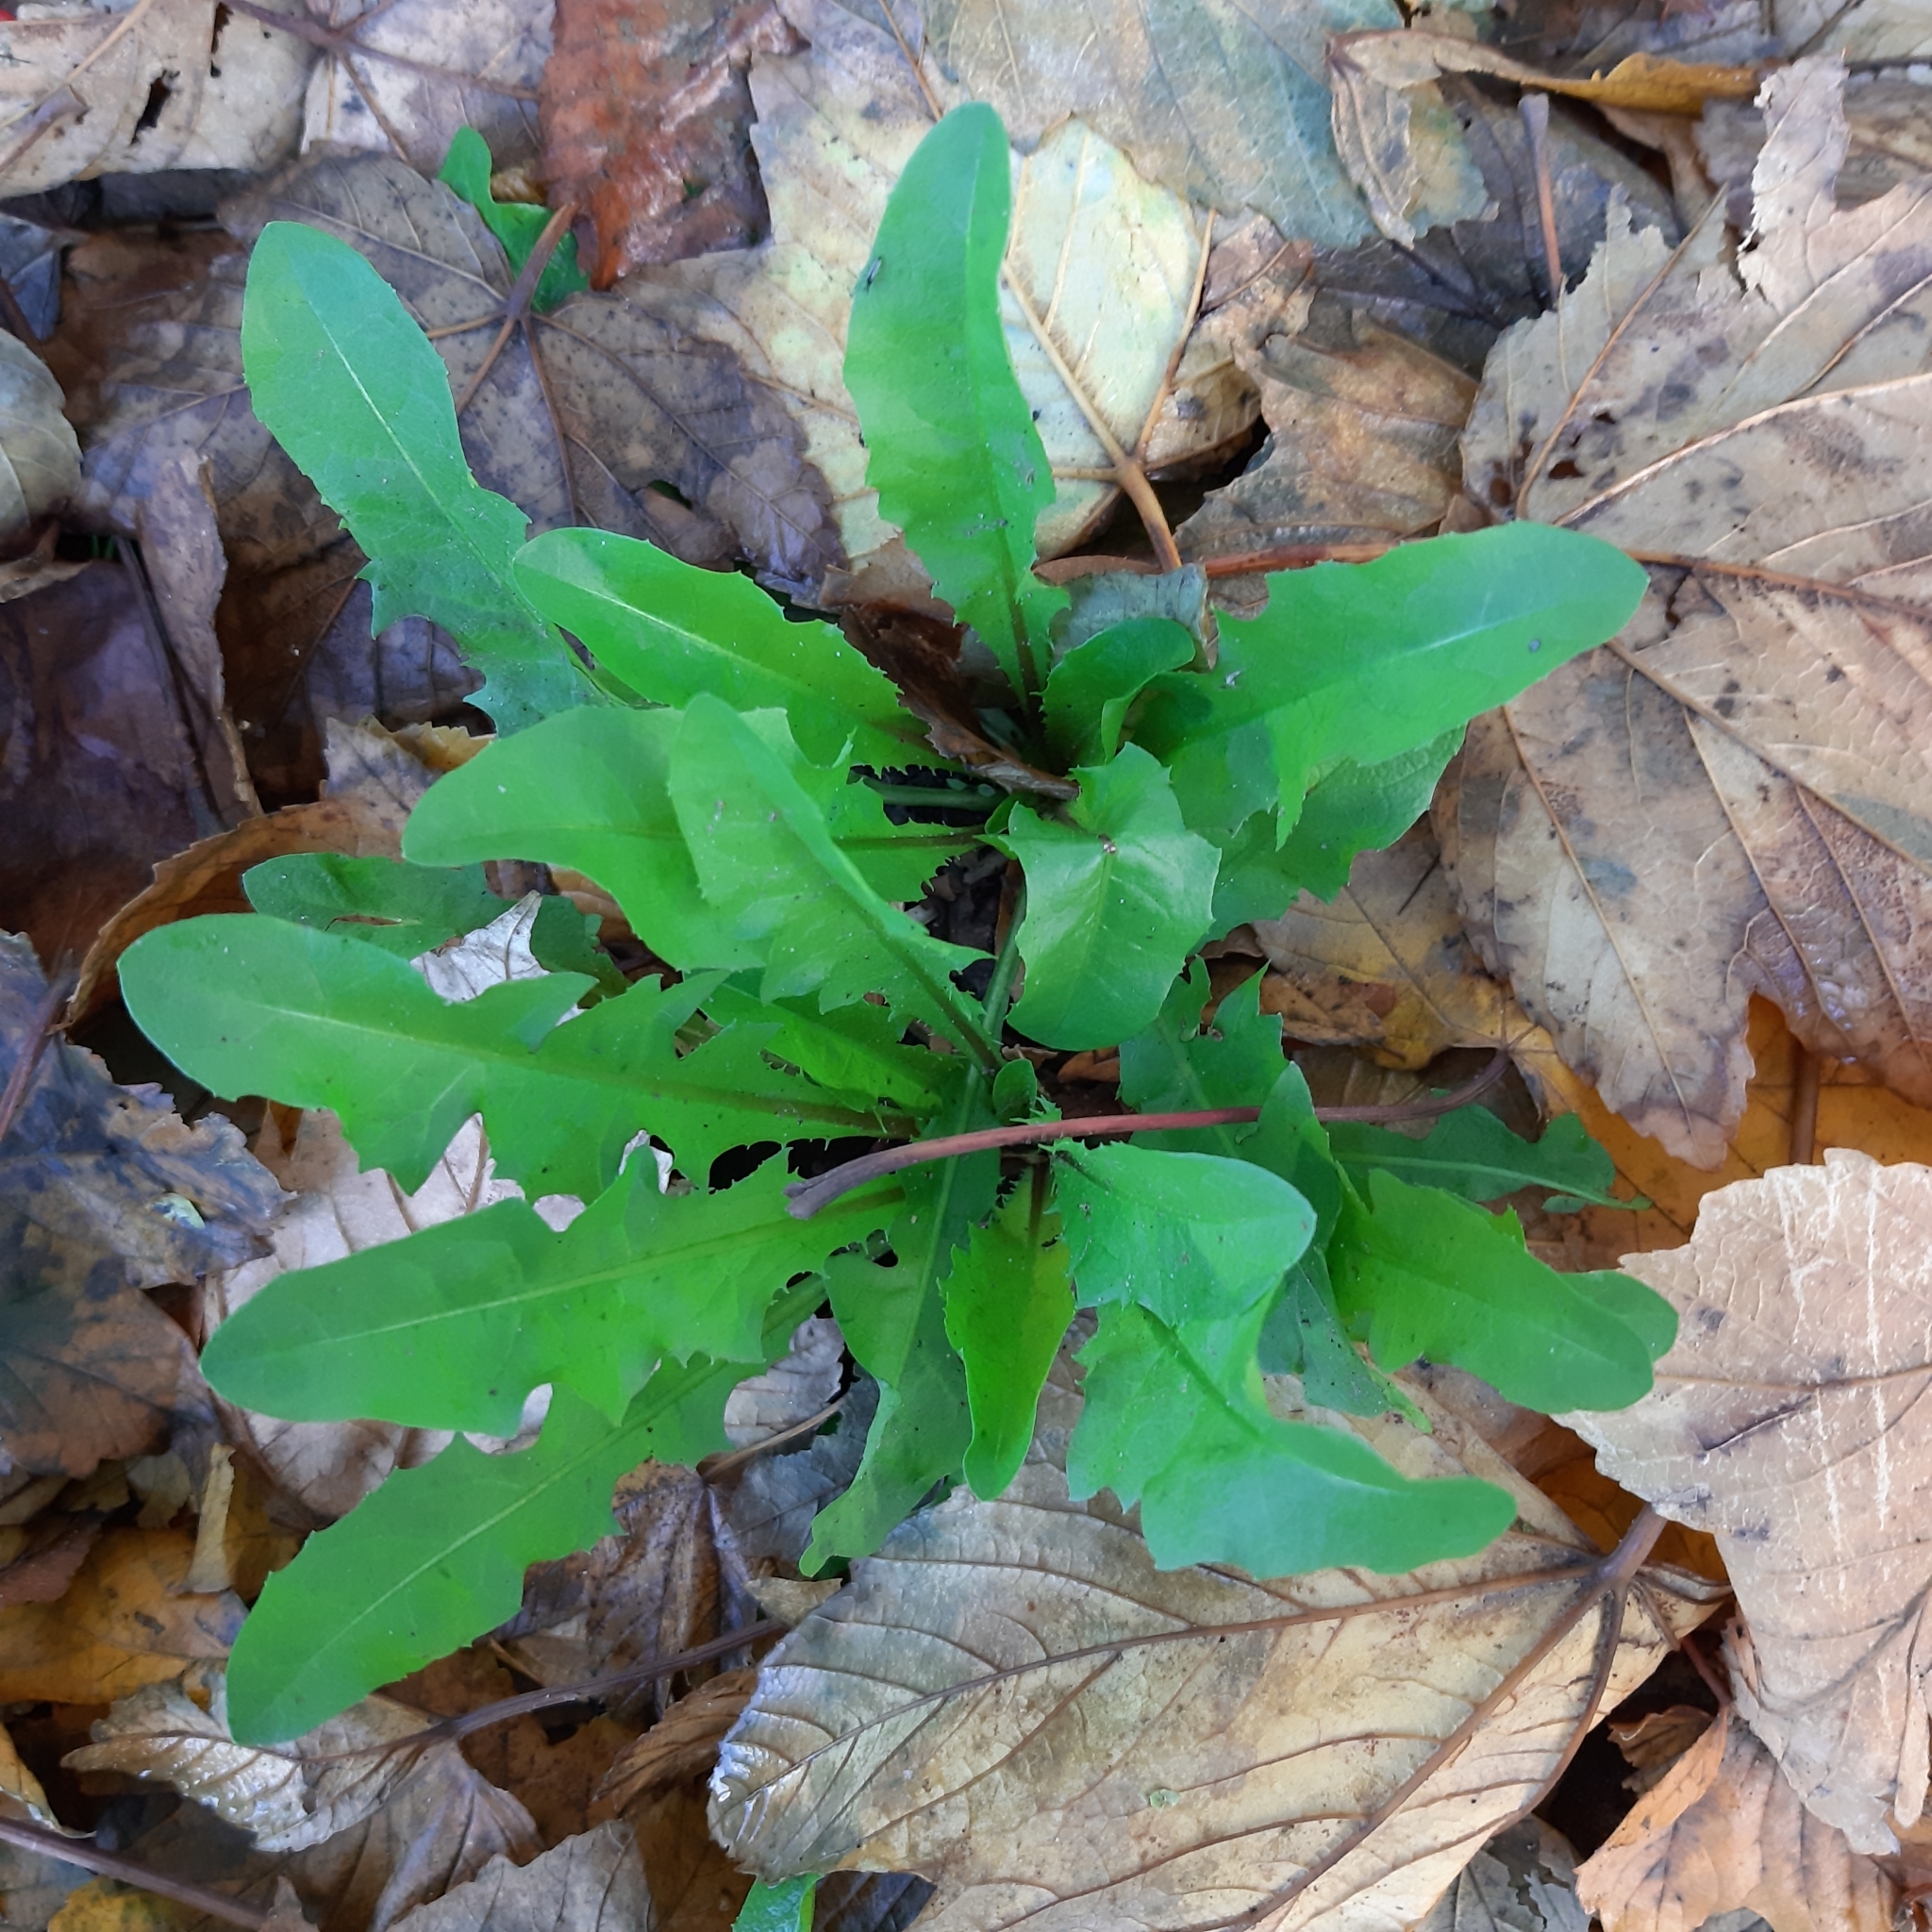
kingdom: Plantae
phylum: Tracheophyta
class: Magnoliopsida
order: Asterales
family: Asteraceae
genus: Taraxacum
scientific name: Taraxacum officinale
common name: Common dandelion
